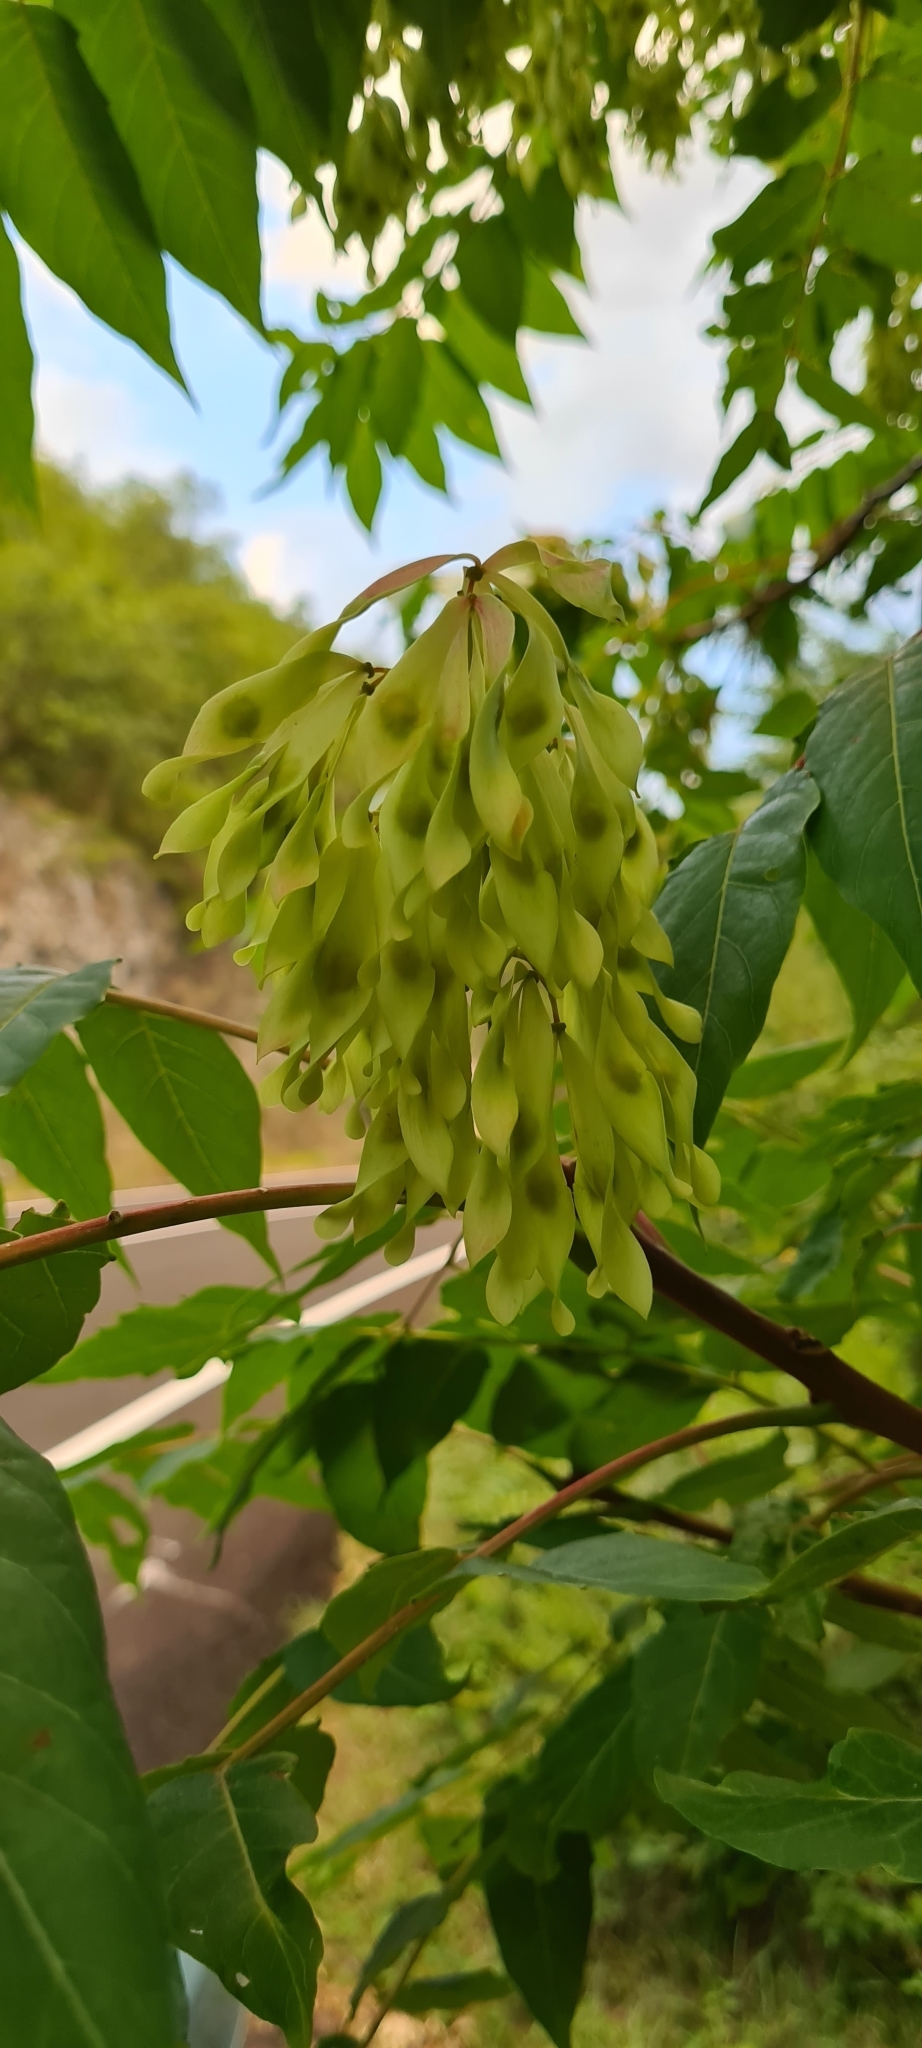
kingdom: Plantae
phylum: Tracheophyta
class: Magnoliopsida
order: Sapindales
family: Simaroubaceae
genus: Ailanthus
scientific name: Ailanthus altissima
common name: Tree-of-heaven
